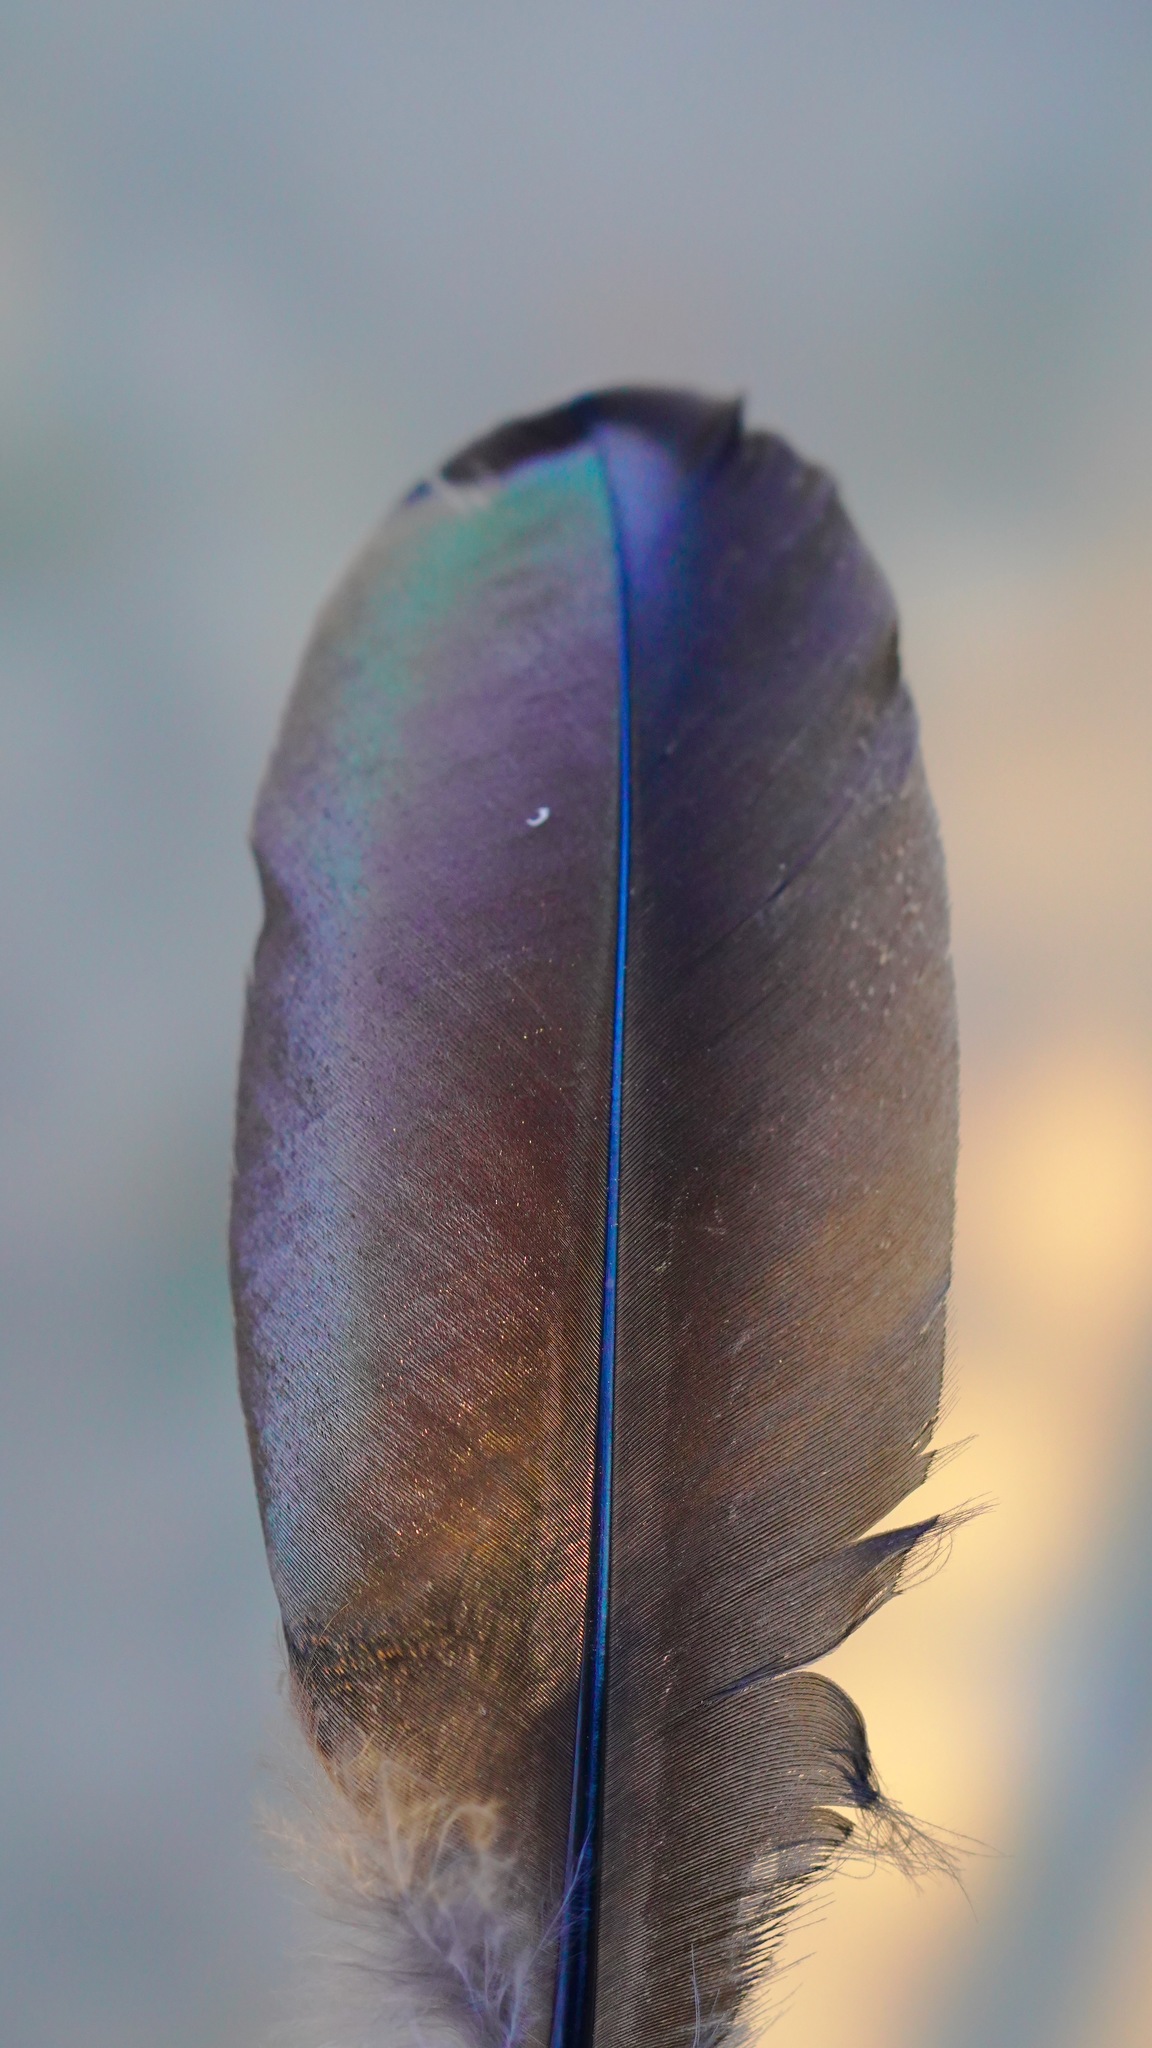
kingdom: Animalia
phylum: Chordata
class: Aves
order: Galliformes
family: Phasianidae
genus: Meleagris
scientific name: Meleagris gallopavo
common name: Wild turkey
